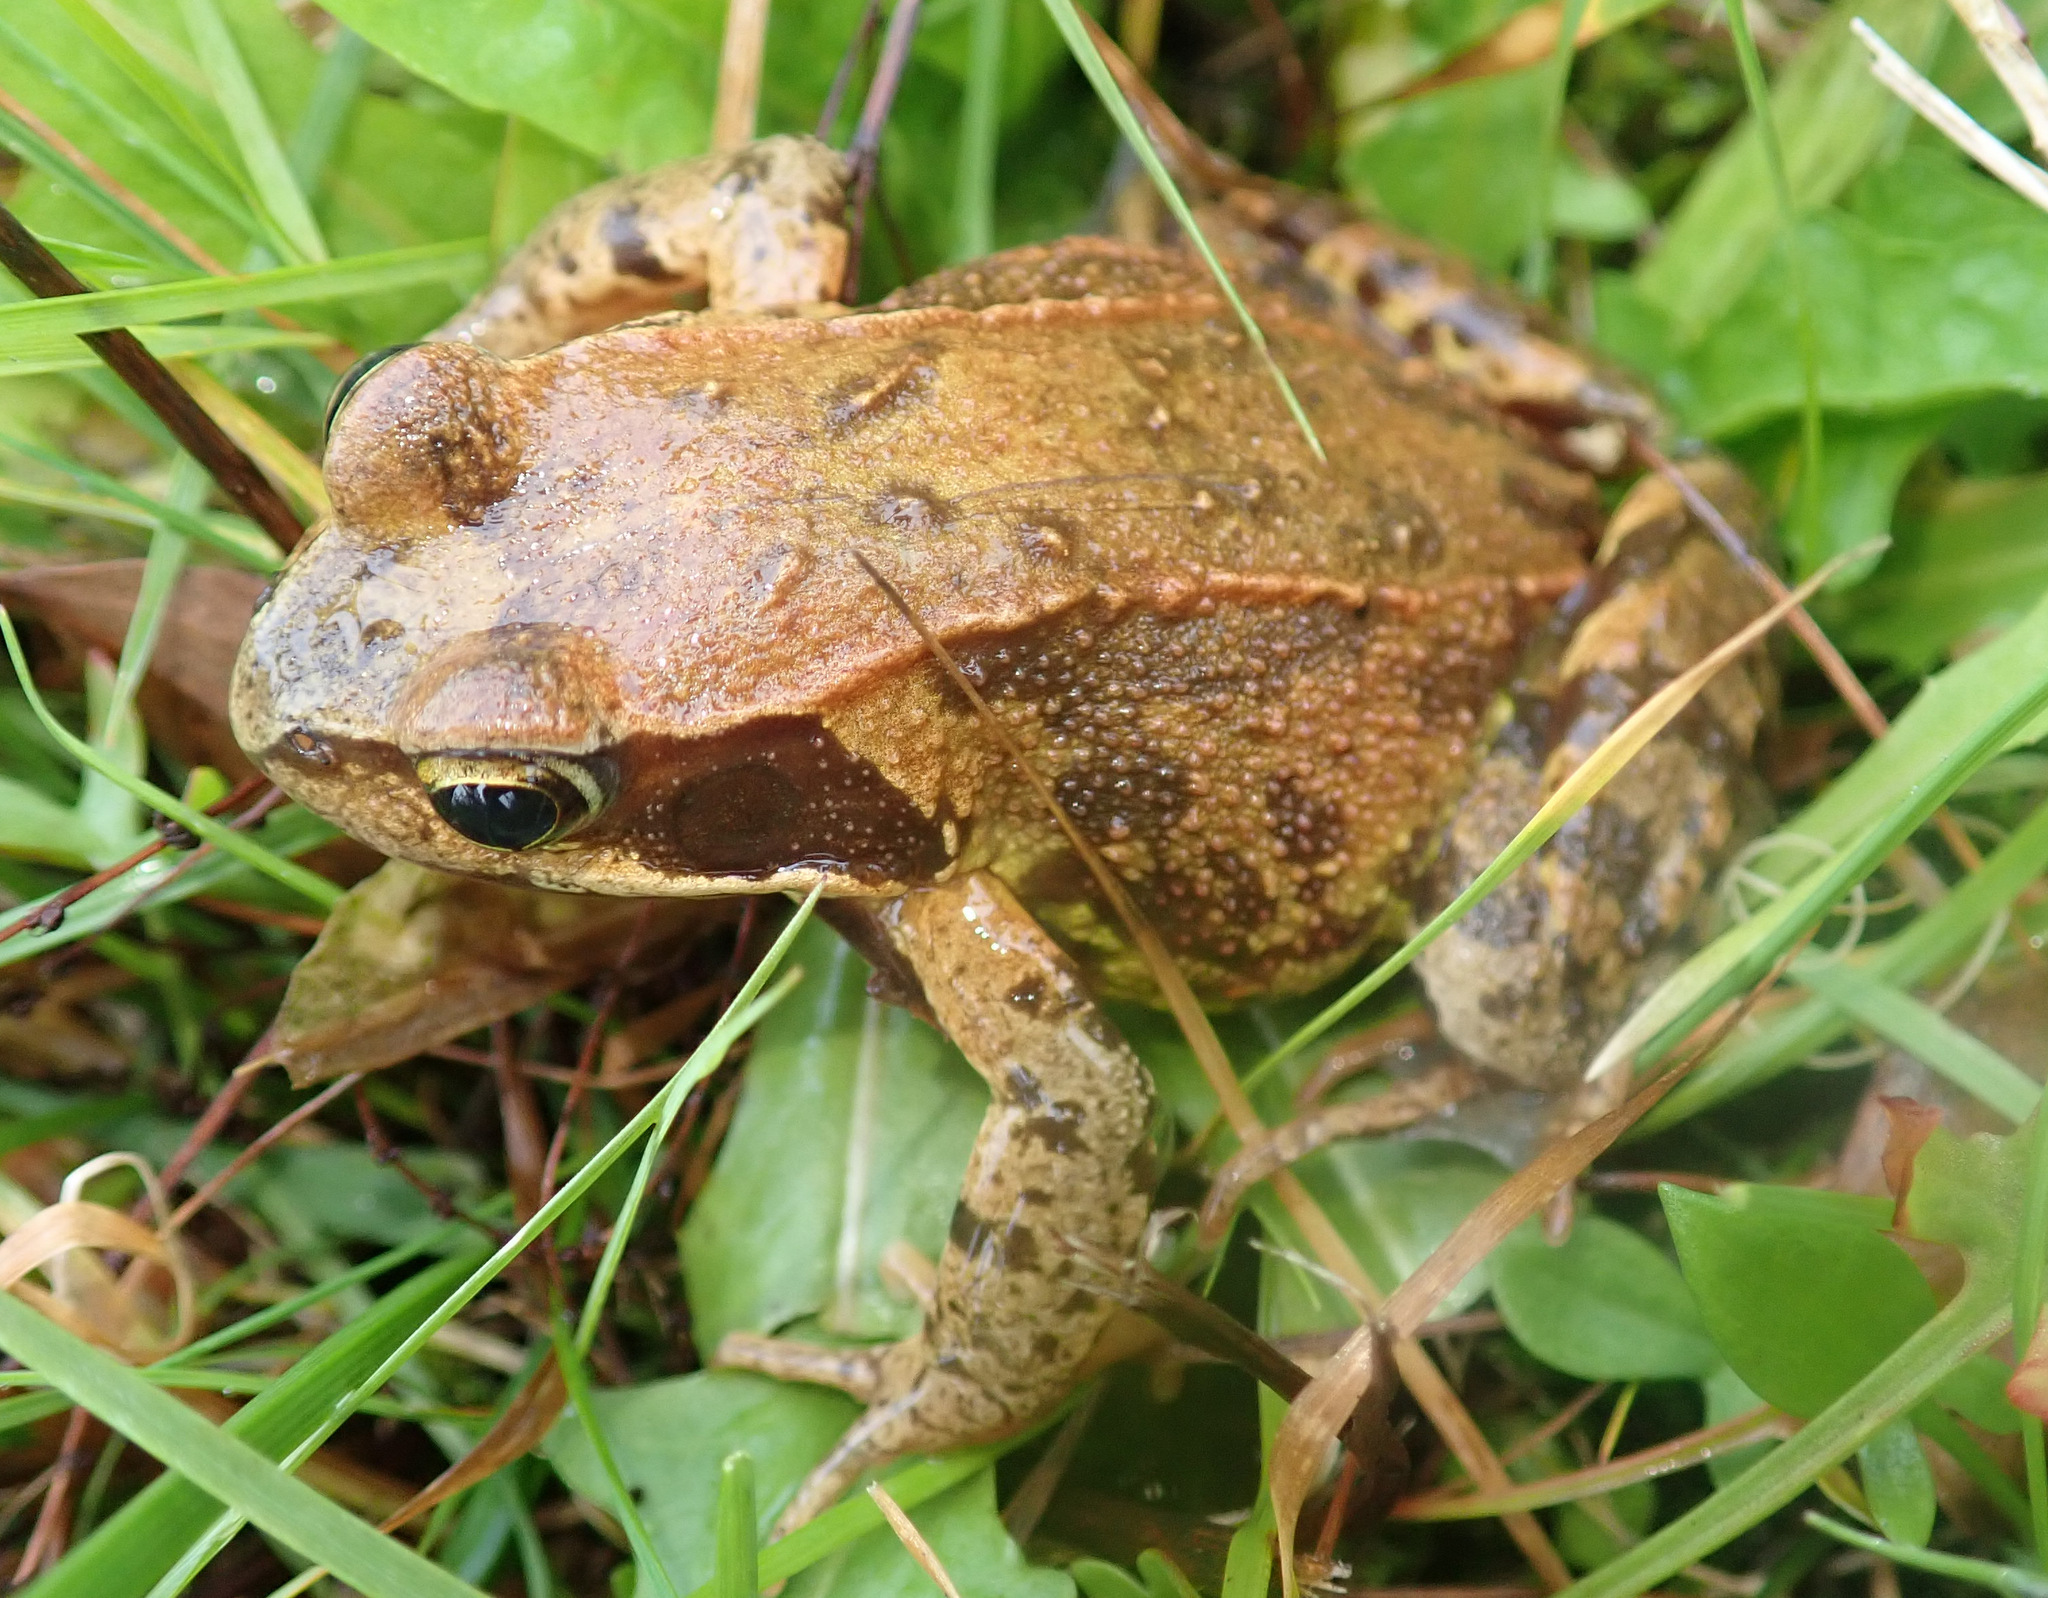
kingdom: Animalia
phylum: Chordata
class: Amphibia
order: Anura
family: Ranidae
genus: Rana
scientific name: Rana temporaria
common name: Common frog
